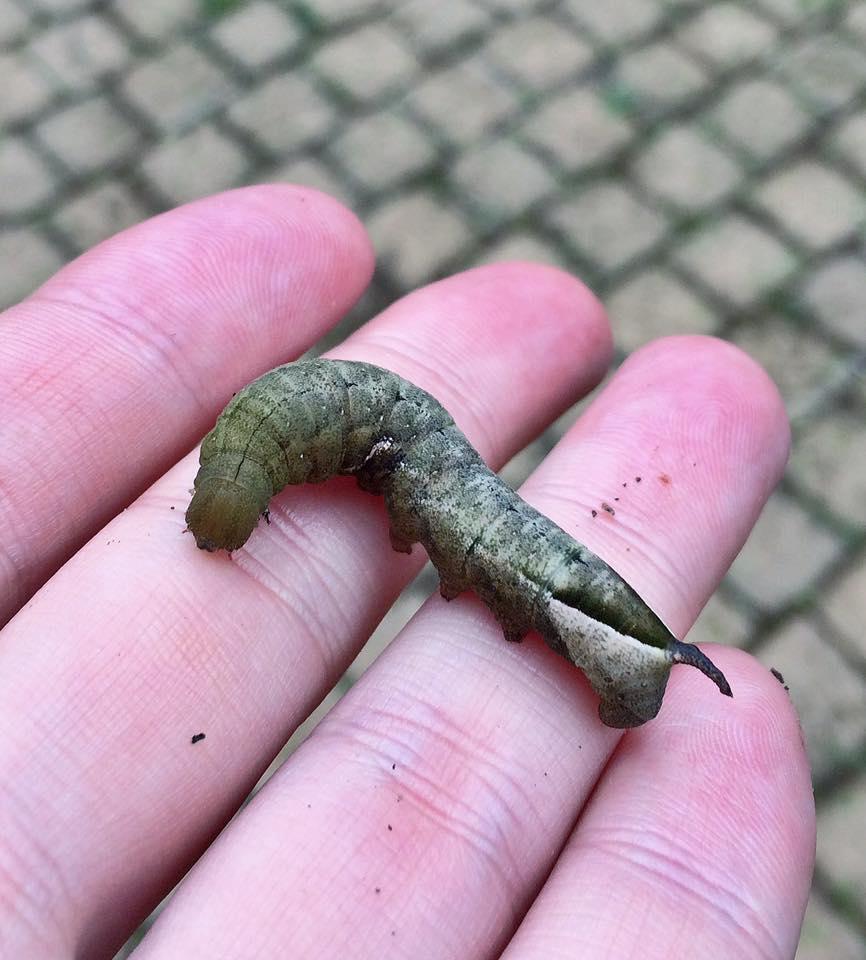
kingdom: Animalia
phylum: Arthropoda
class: Insecta
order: Lepidoptera
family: Sphingidae
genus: Nephele
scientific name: Nephele vau
